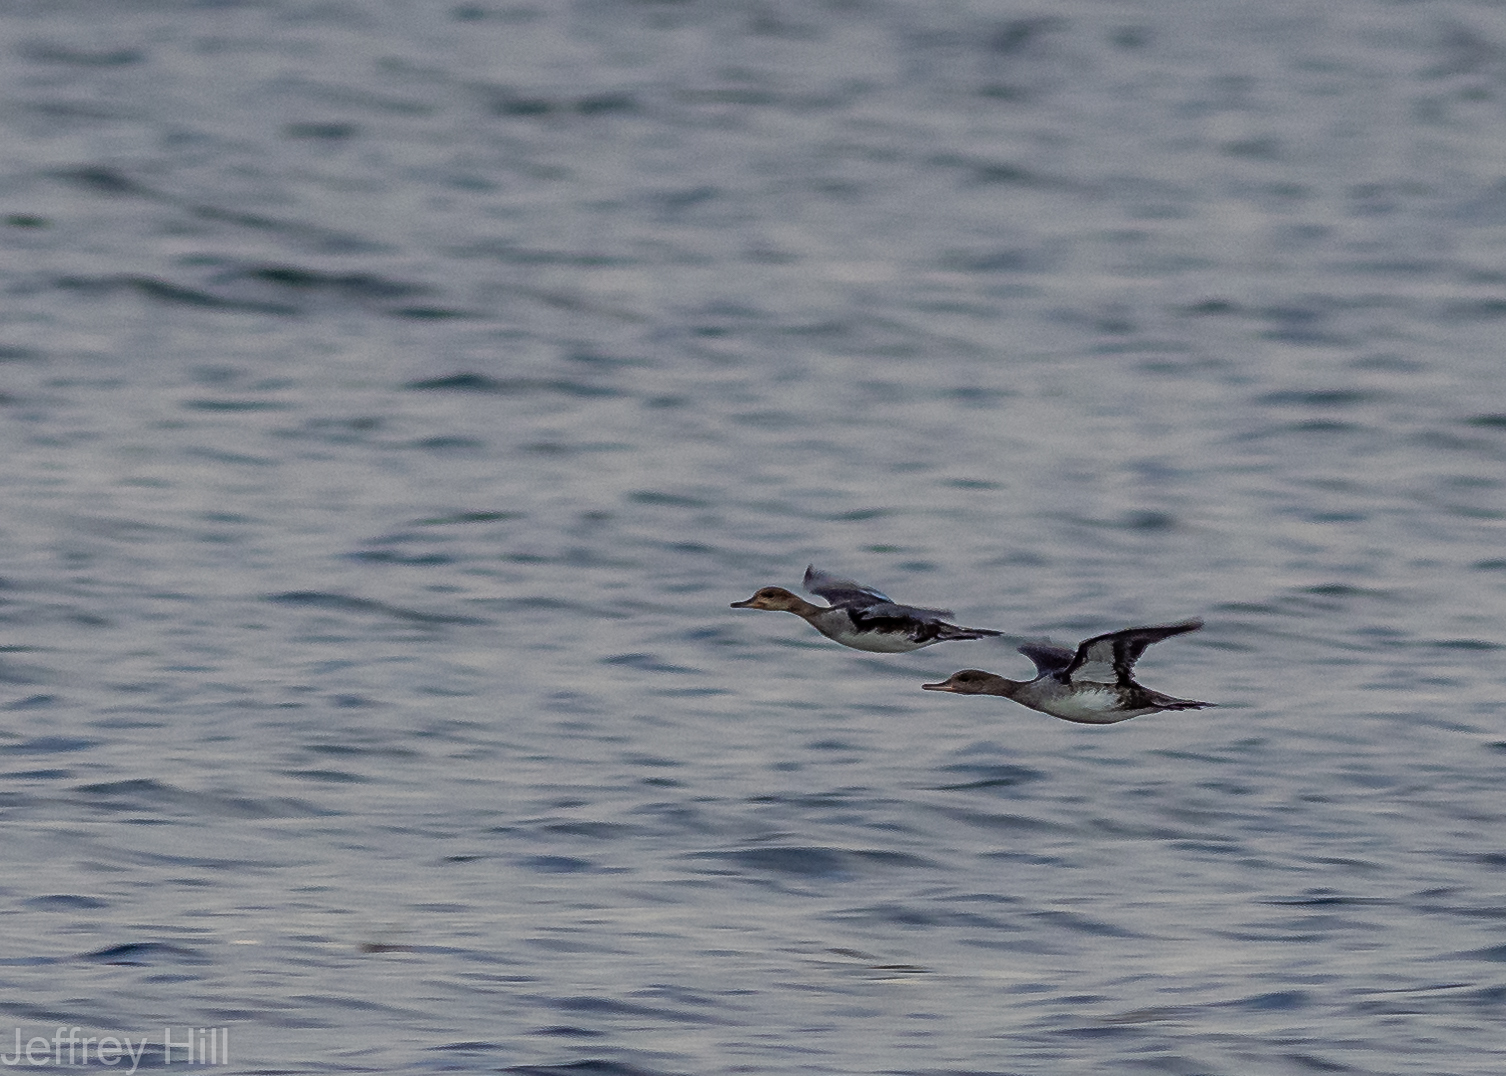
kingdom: Animalia
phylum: Chordata
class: Aves
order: Anseriformes
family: Anatidae
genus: Lophodytes
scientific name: Lophodytes cucullatus
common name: Hooded merganser
